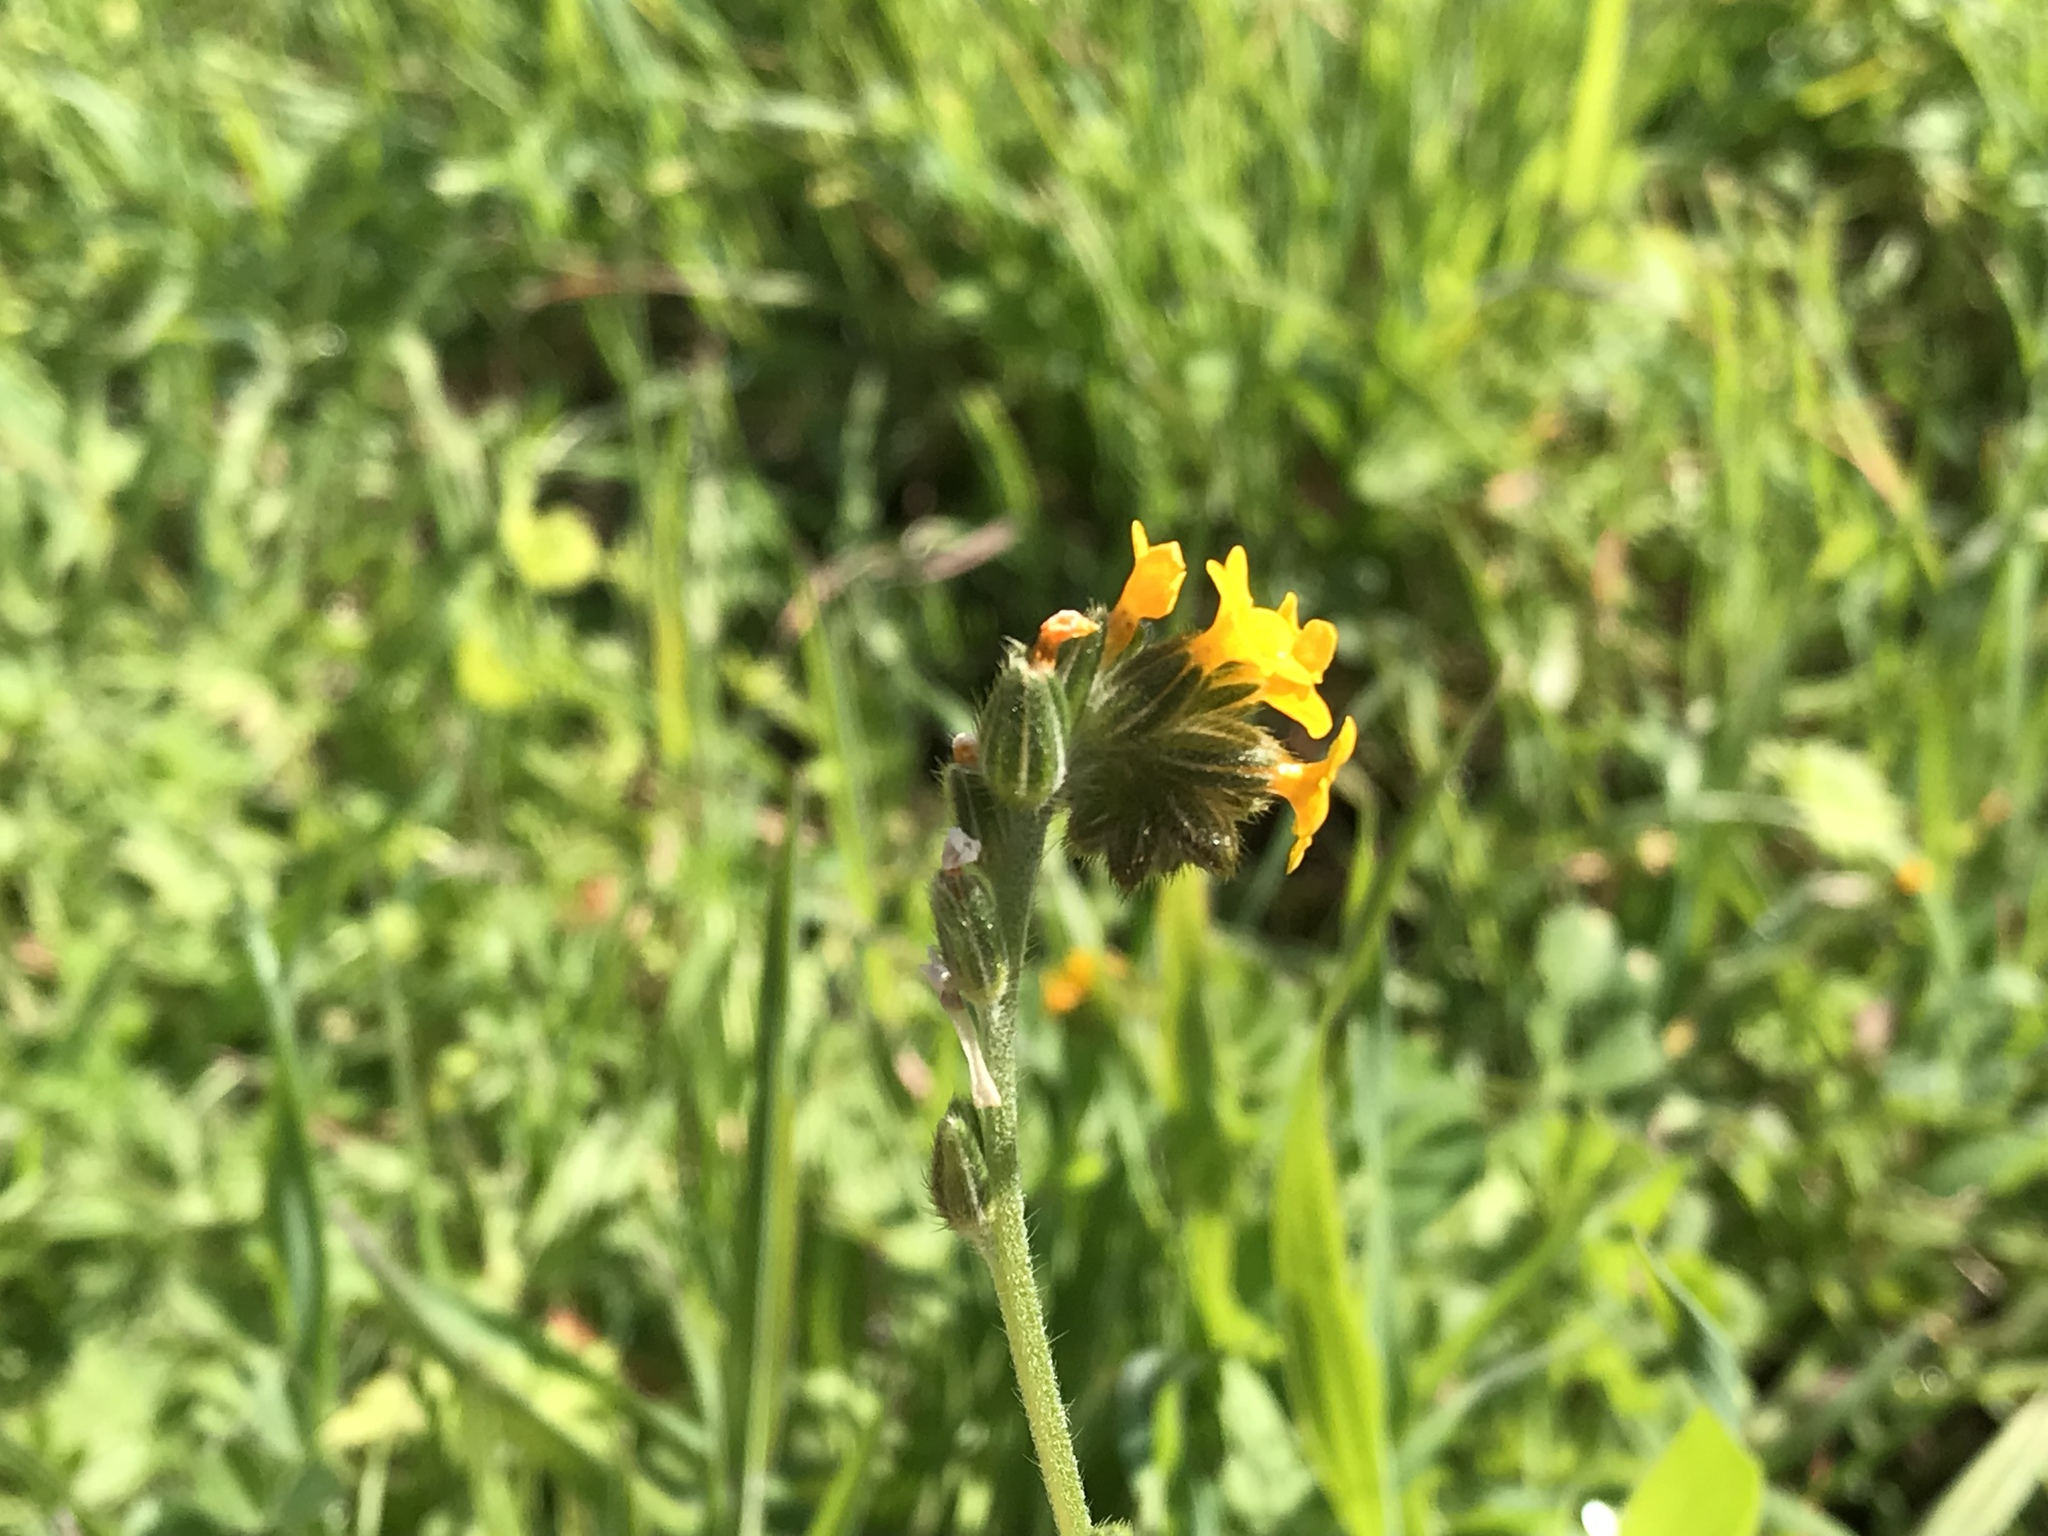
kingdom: Plantae
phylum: Tracheophyta
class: Magnoliopsida
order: Boraginales
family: Boraginaceae
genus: Amsinckia
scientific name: Amsinckia menziesii
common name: Menzies' fiddleneck
